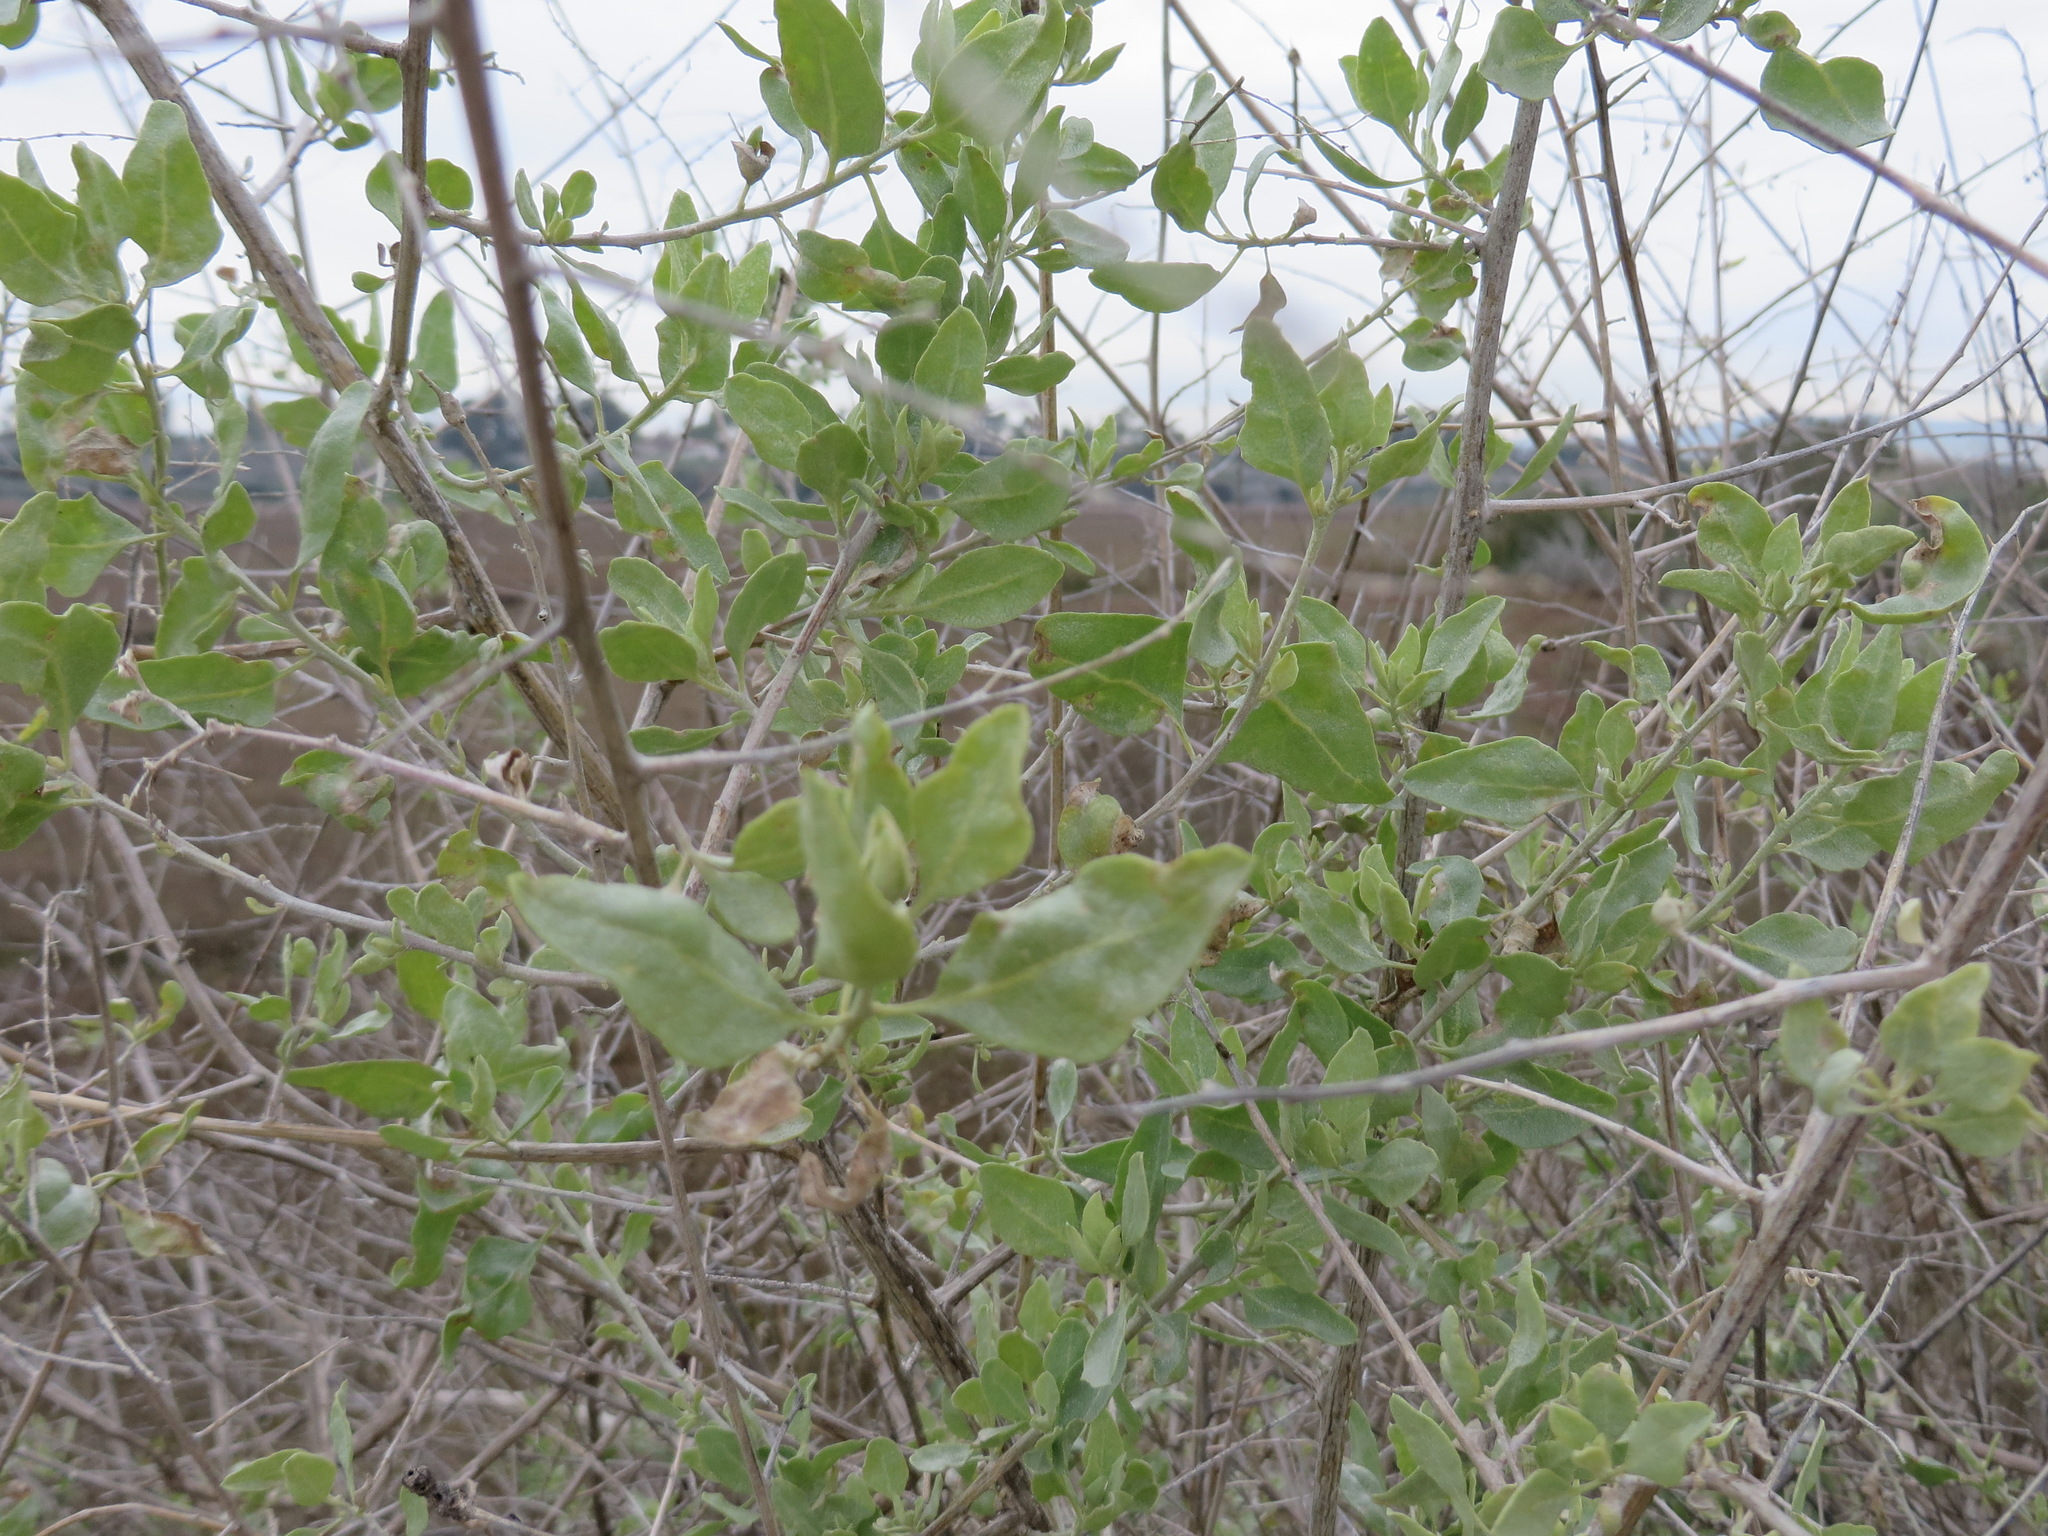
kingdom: Plantae
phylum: Tracheophyta
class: Magnoliopsida
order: Caryophyllales
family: Amaranthaceae
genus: Atriplex
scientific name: Atriplex lentiformis
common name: Big saltbush
